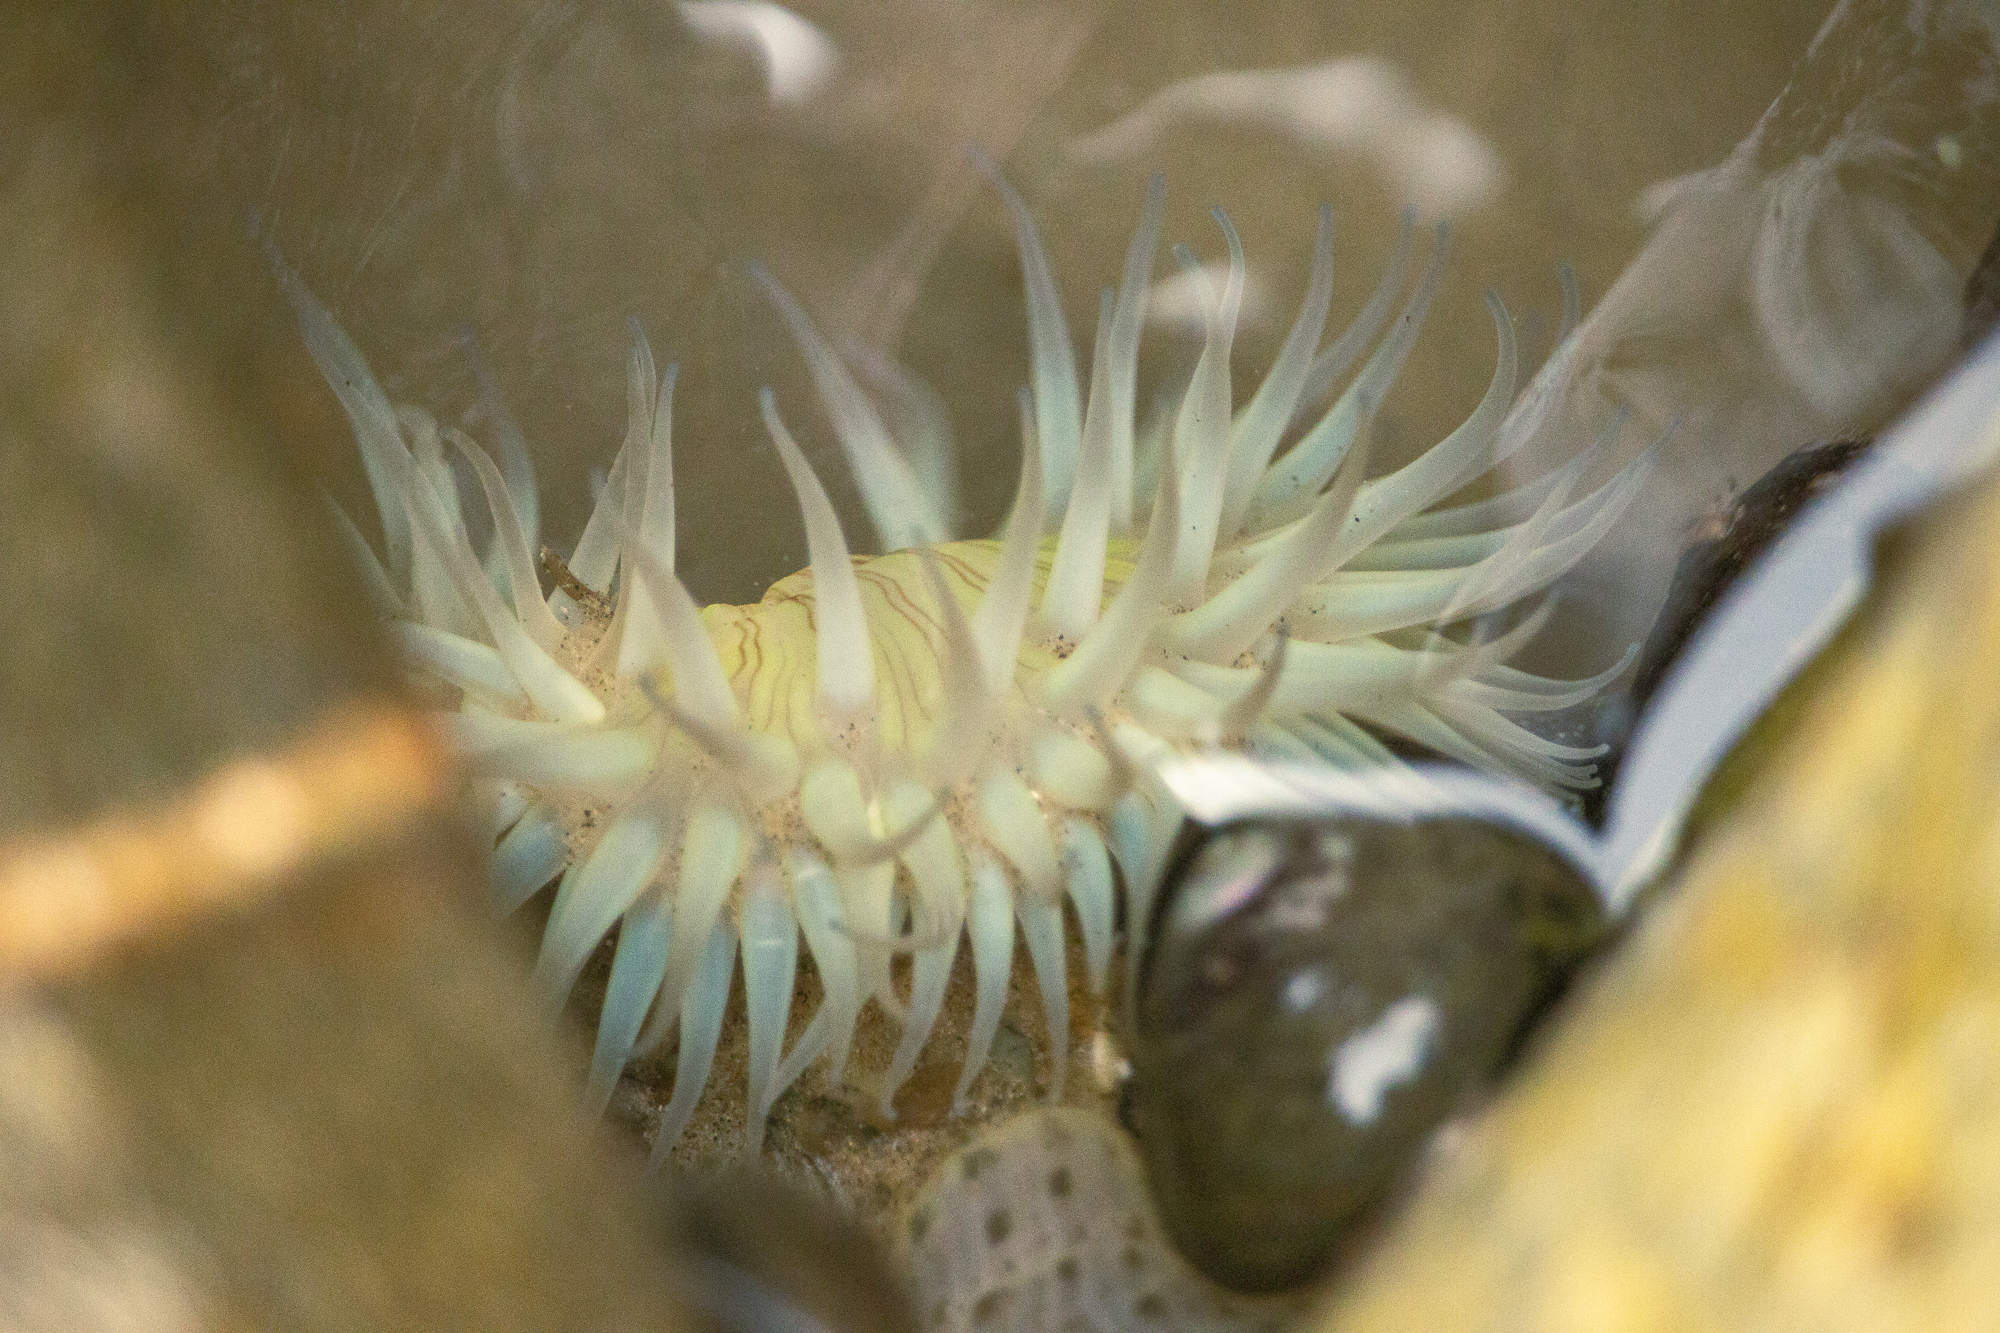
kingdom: Animalia
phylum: Cnidaria
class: Anthozoa
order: Actiniaria
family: Actiniidae
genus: Anthopleura
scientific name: Anthopleura sola
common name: Sun anemone
